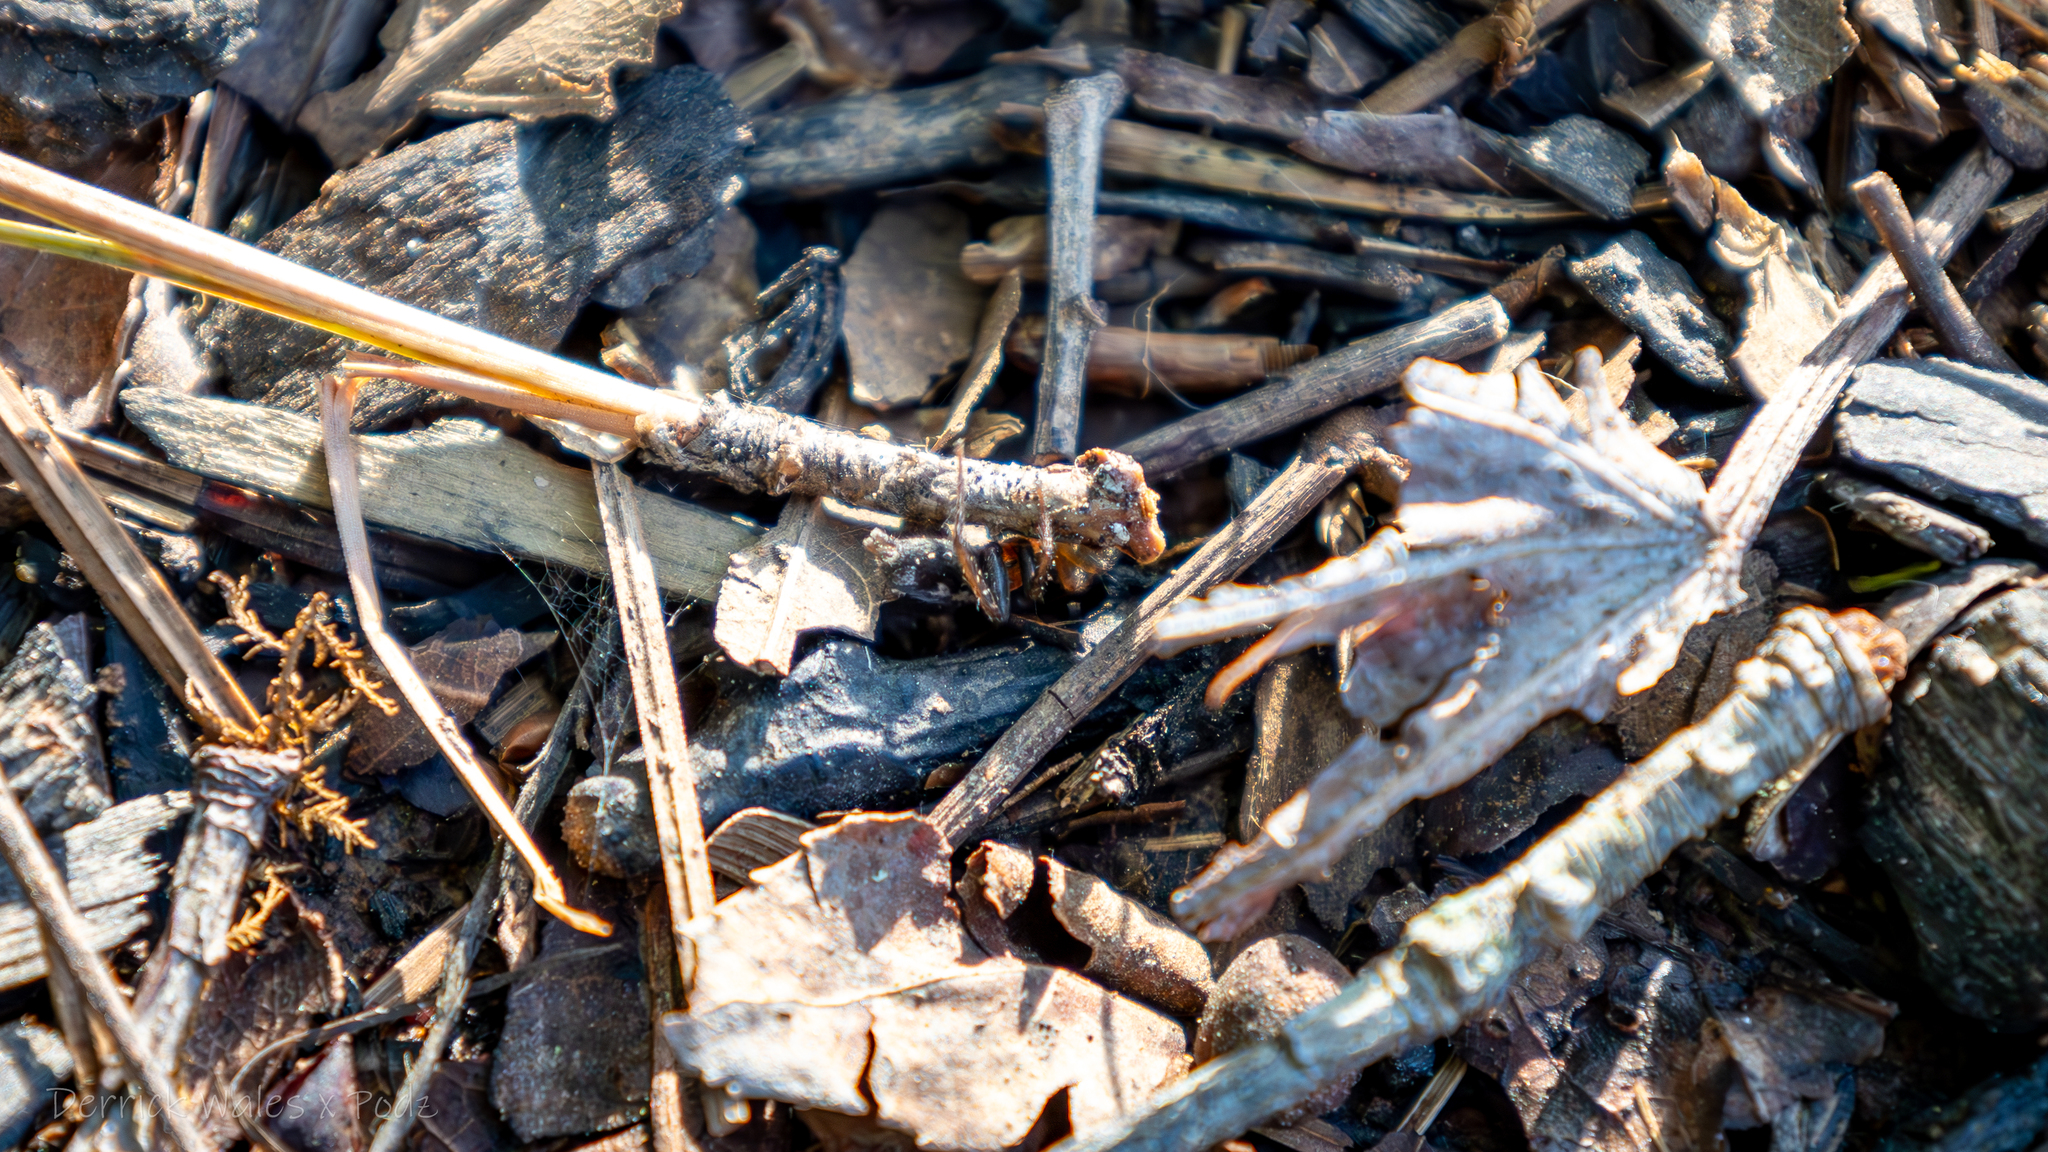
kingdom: Animalia
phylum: Arthropoda
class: Arachnida
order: Araneae
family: Gnaphosidae
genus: Herpyllus
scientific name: Herpyllus ecclesiasticus
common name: Eastern parson spider
